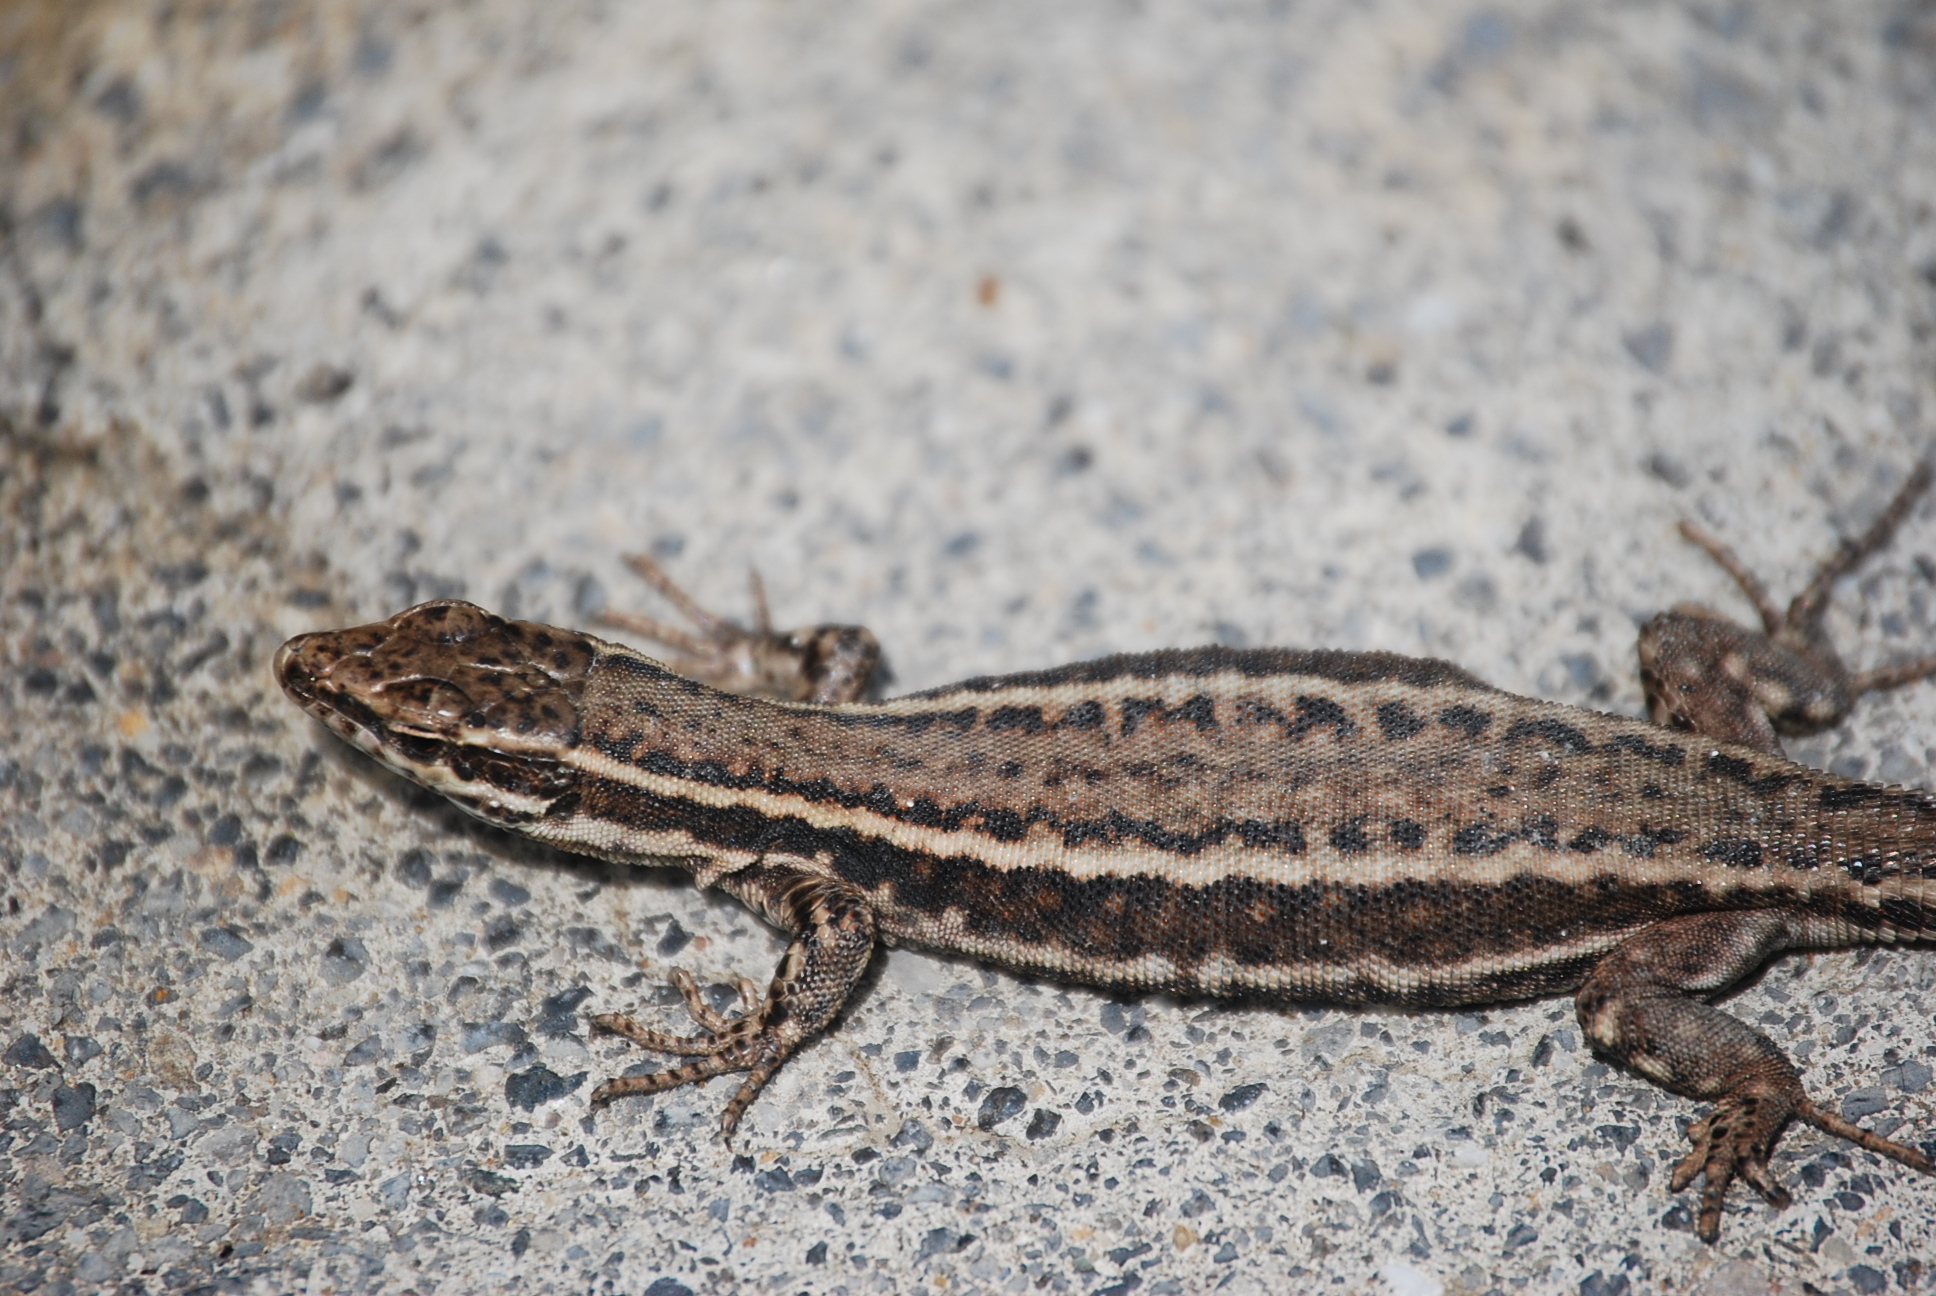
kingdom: Animalia
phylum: Chordata
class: Squamata
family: Lacertidae
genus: Podarcis
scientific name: Podarcis muralis
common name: Common wall lizard
